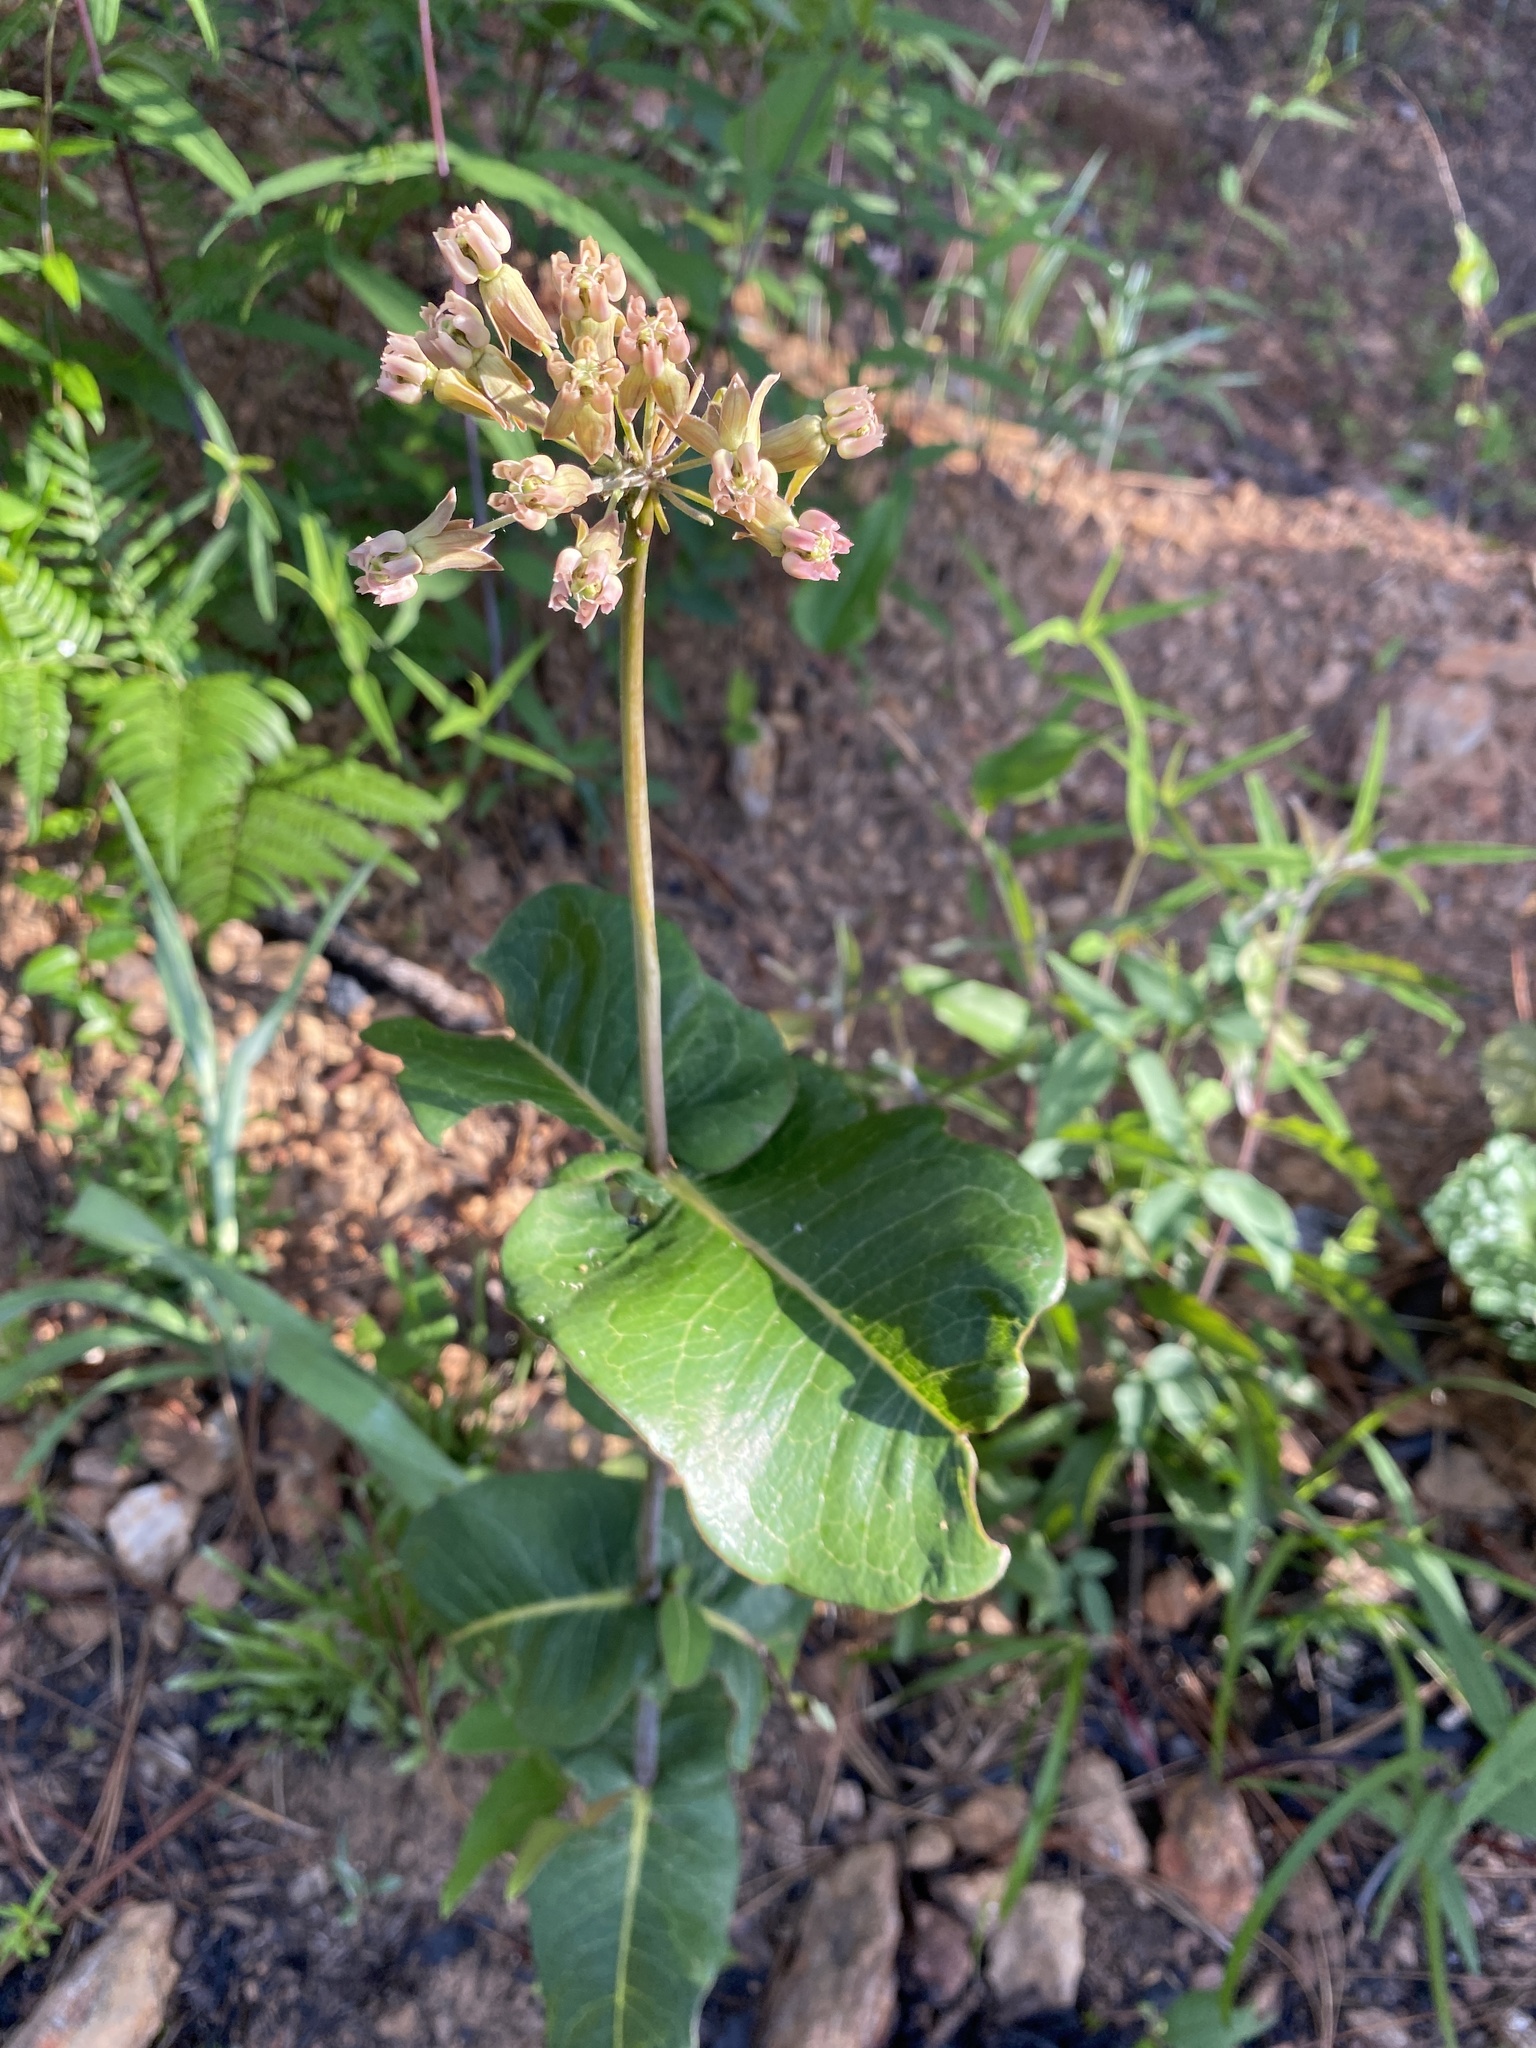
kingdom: Plantae
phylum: Tracheophyta
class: Magnoliopsida
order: Gentianales
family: Apocynaceae
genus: Asclepias
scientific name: Asclepias amplexicaulis
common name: Blunt-leaf milkweed
